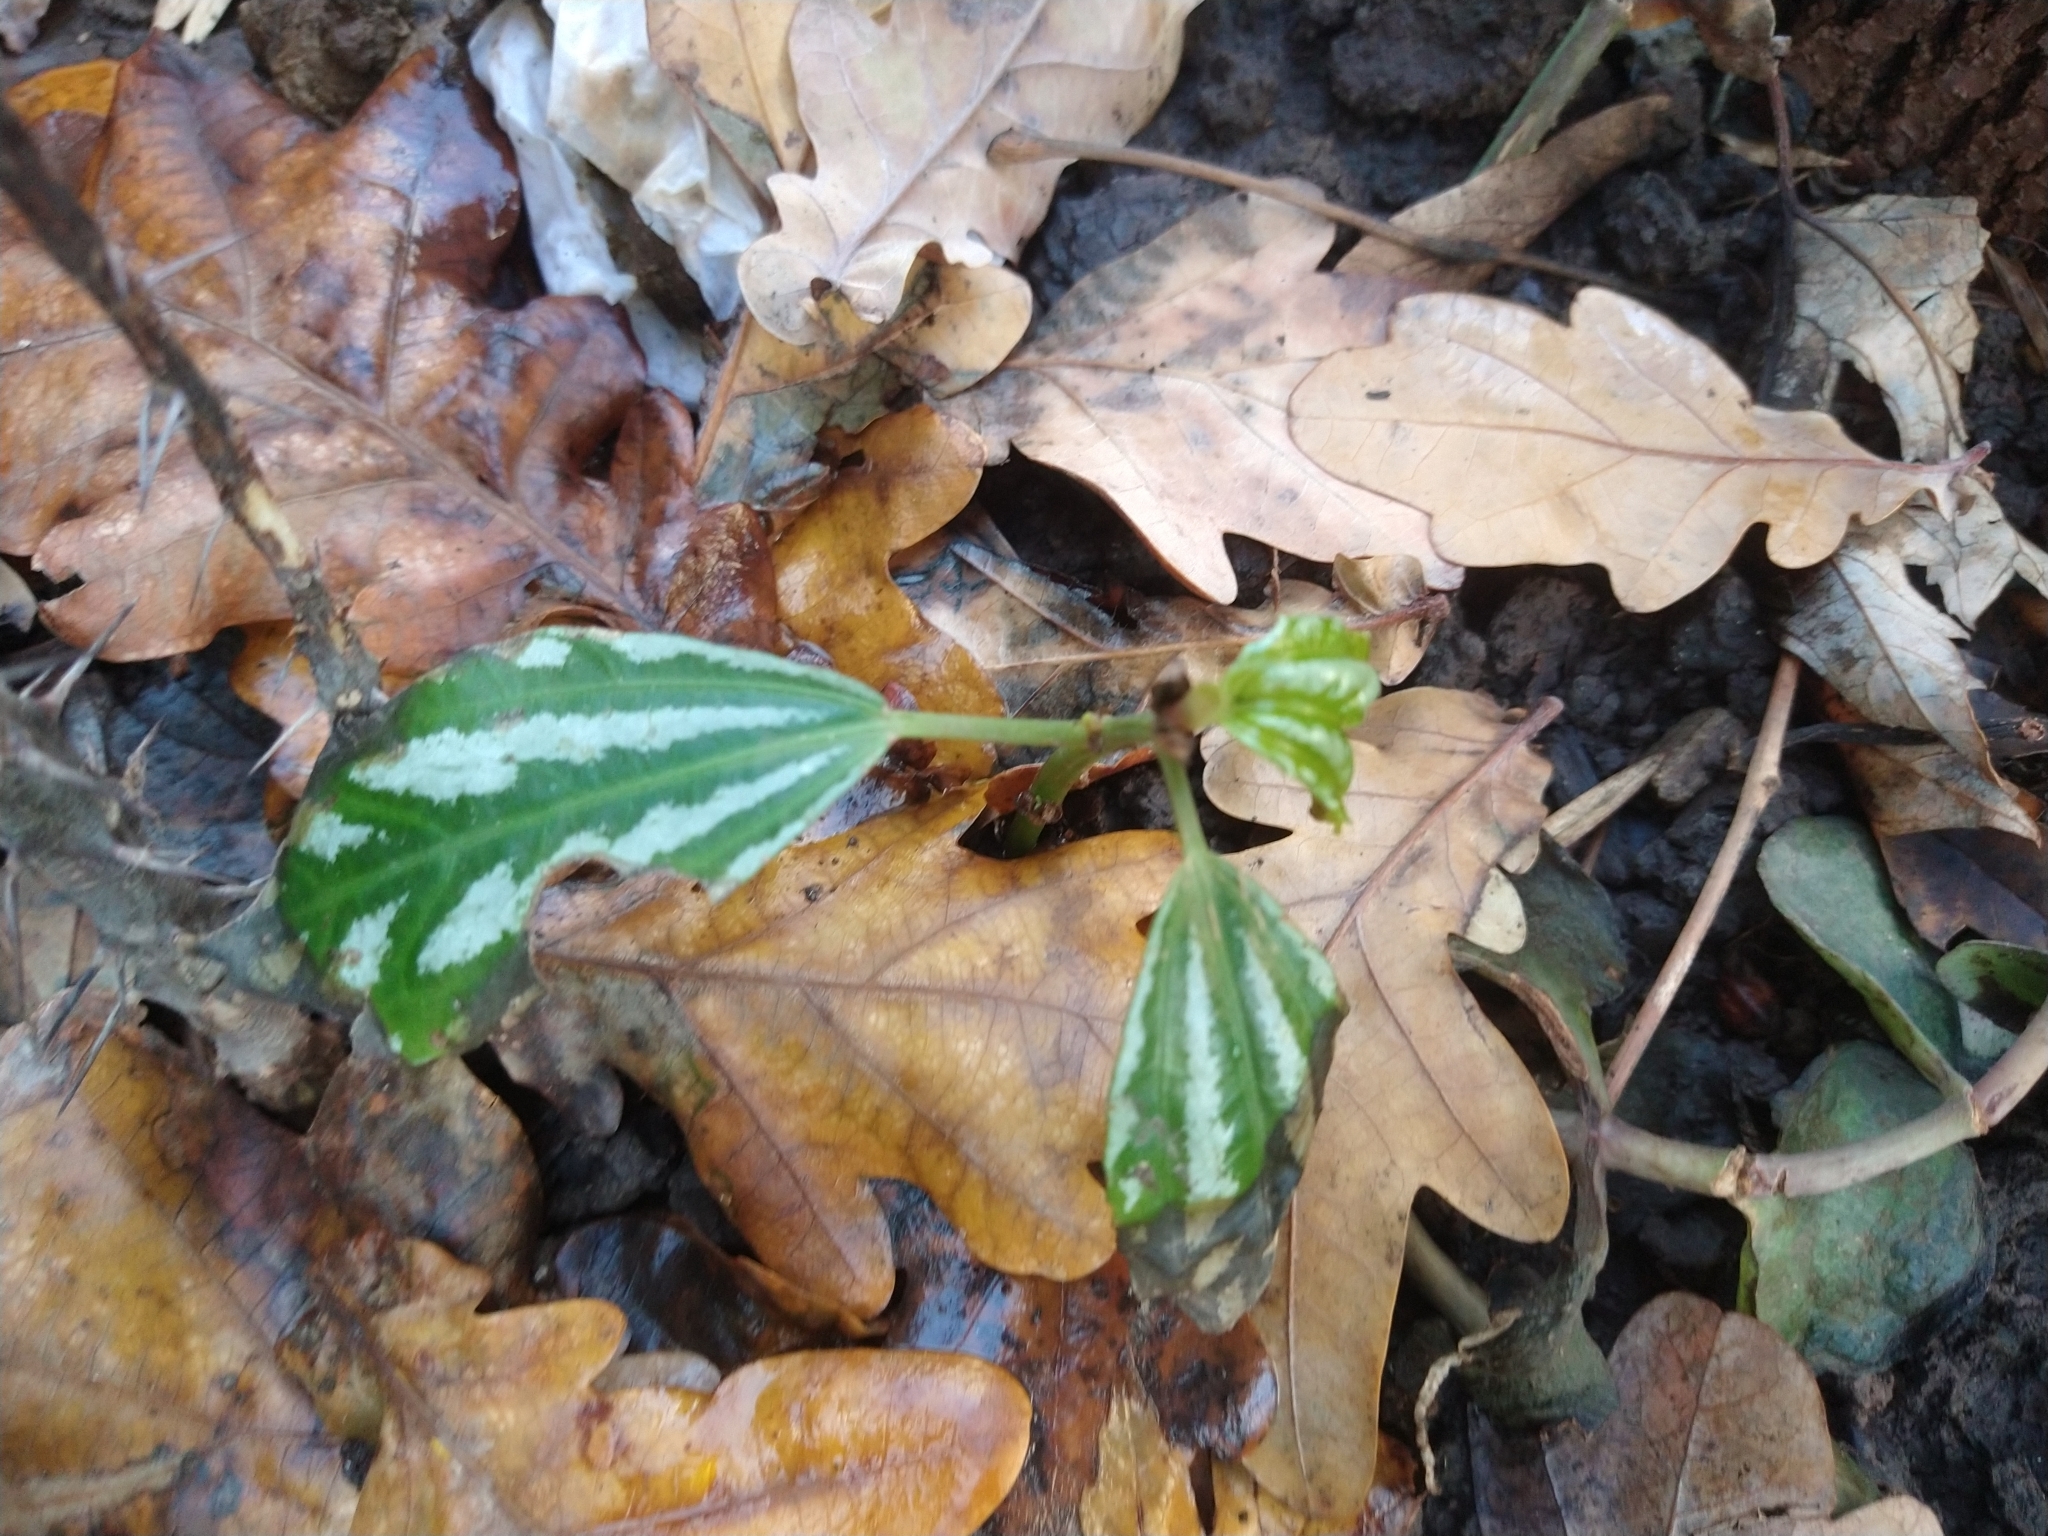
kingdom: Plantae
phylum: Tracheophyta
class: Magnoliopsida
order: Rosales
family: Urticaceae
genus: Pilea
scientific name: Pilea cadierei
